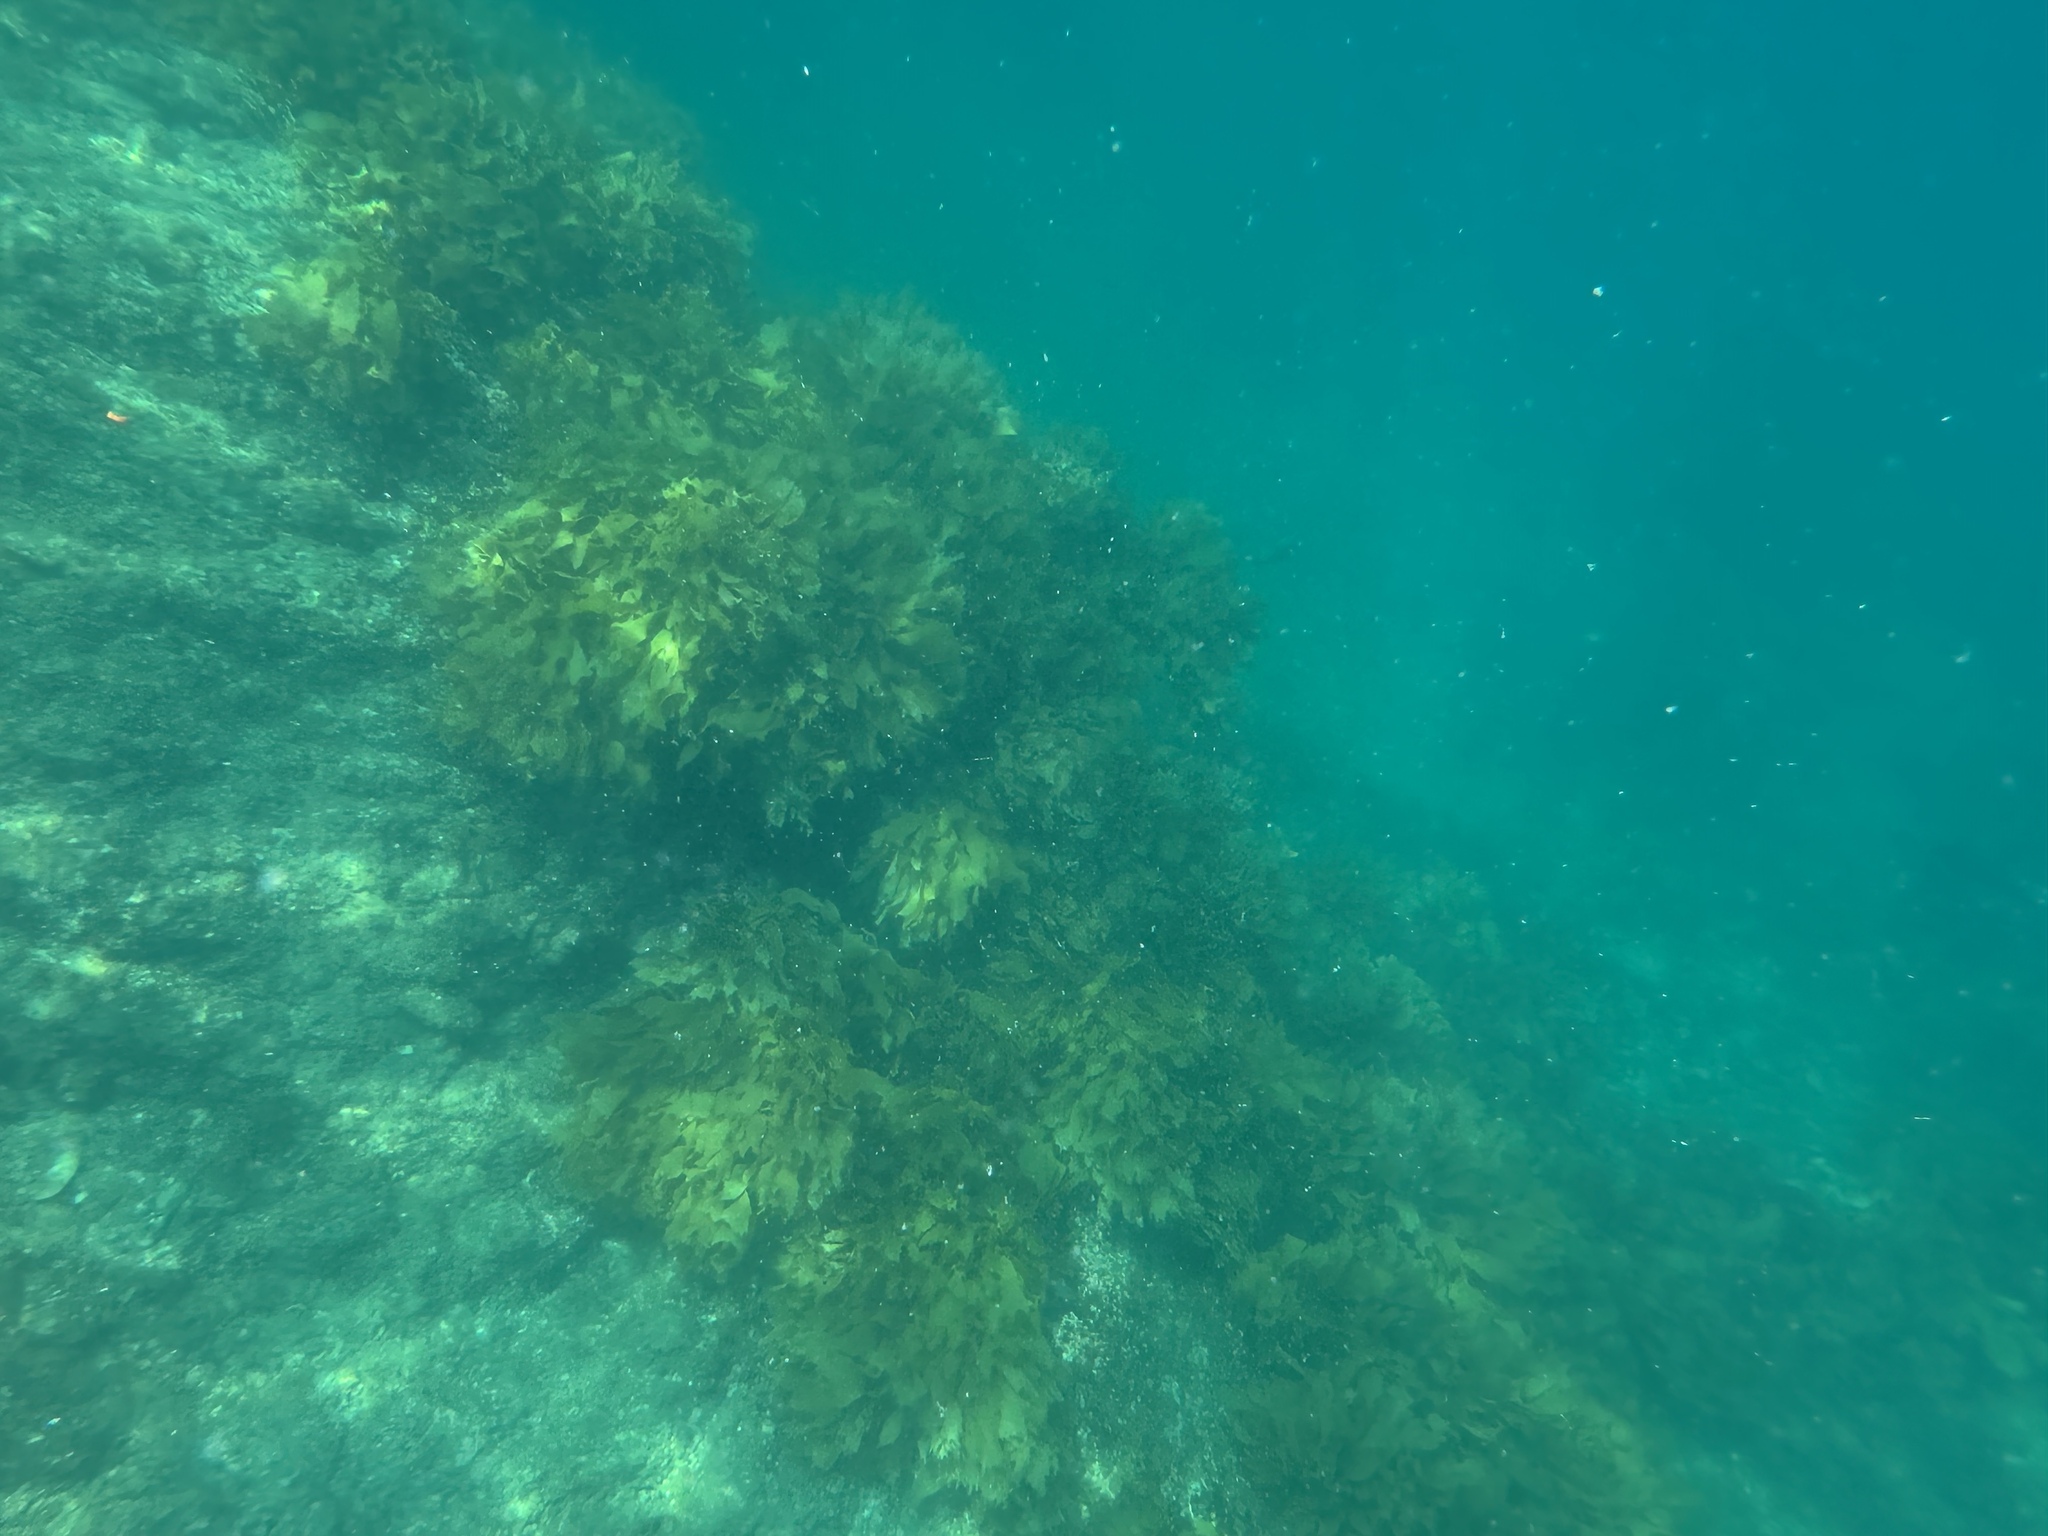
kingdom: Chromista
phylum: Ochrophyta
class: Phaeophyceae
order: Laminariales
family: Lessoniaceae
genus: Ecklonia
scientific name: Ecklonia radiata
